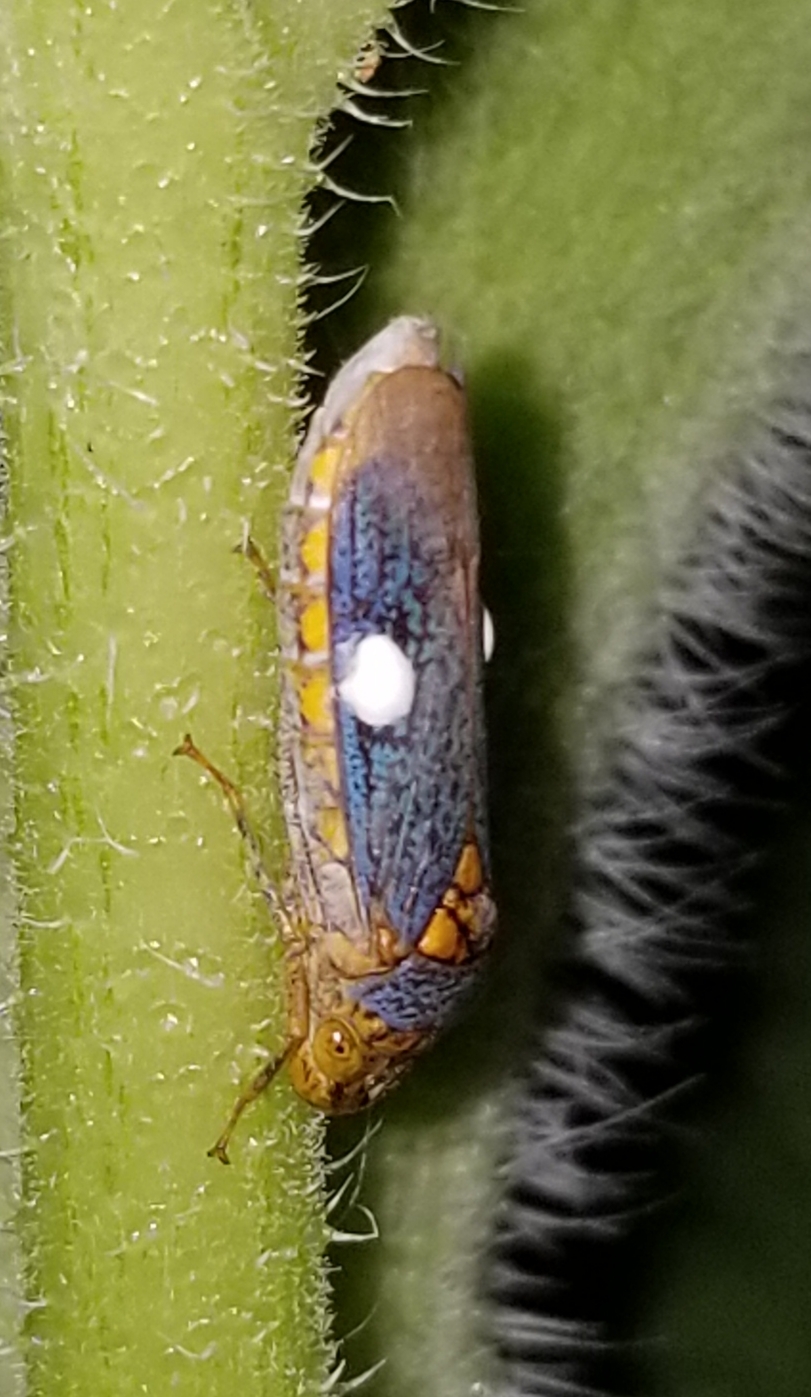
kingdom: Animalia
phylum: Arthropoda
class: Insecta
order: Hemiptera
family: Cicadellidae
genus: Oncometopia
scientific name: Oncometopia orbona
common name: Broad-headed sharpshooter
